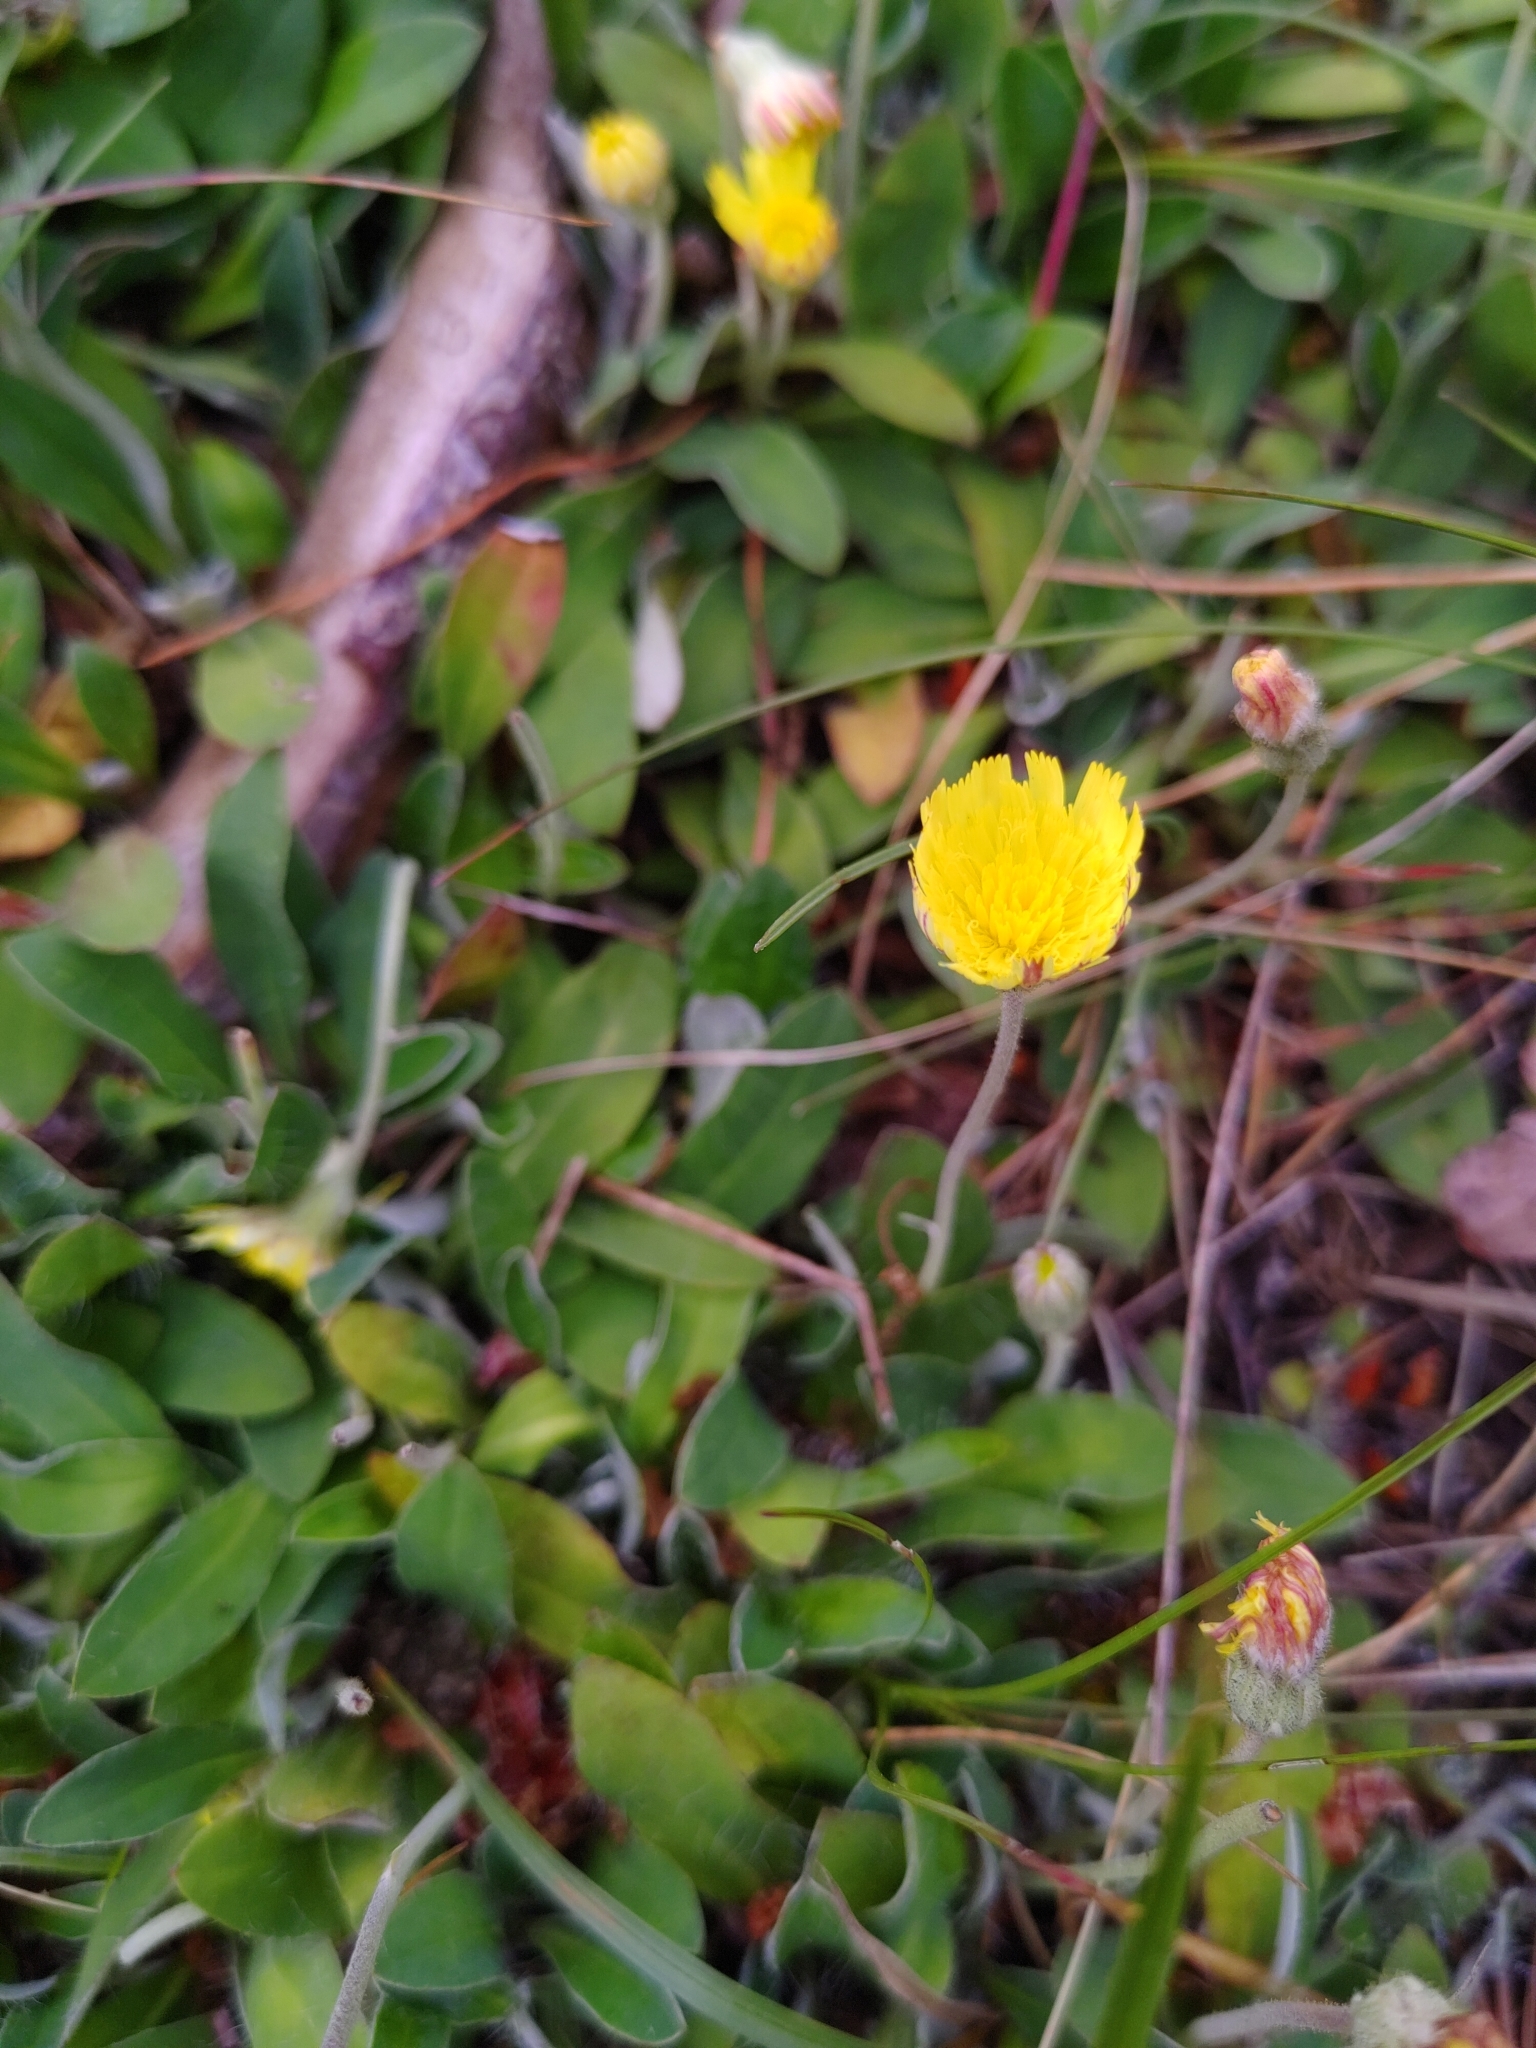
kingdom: Plantae
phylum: Tracheophyta
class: Magnoliopsida
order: Asterales
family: Asteraceae
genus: Pilosella
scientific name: Pilosella officinarum
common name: Mouse-ear hawkweed
